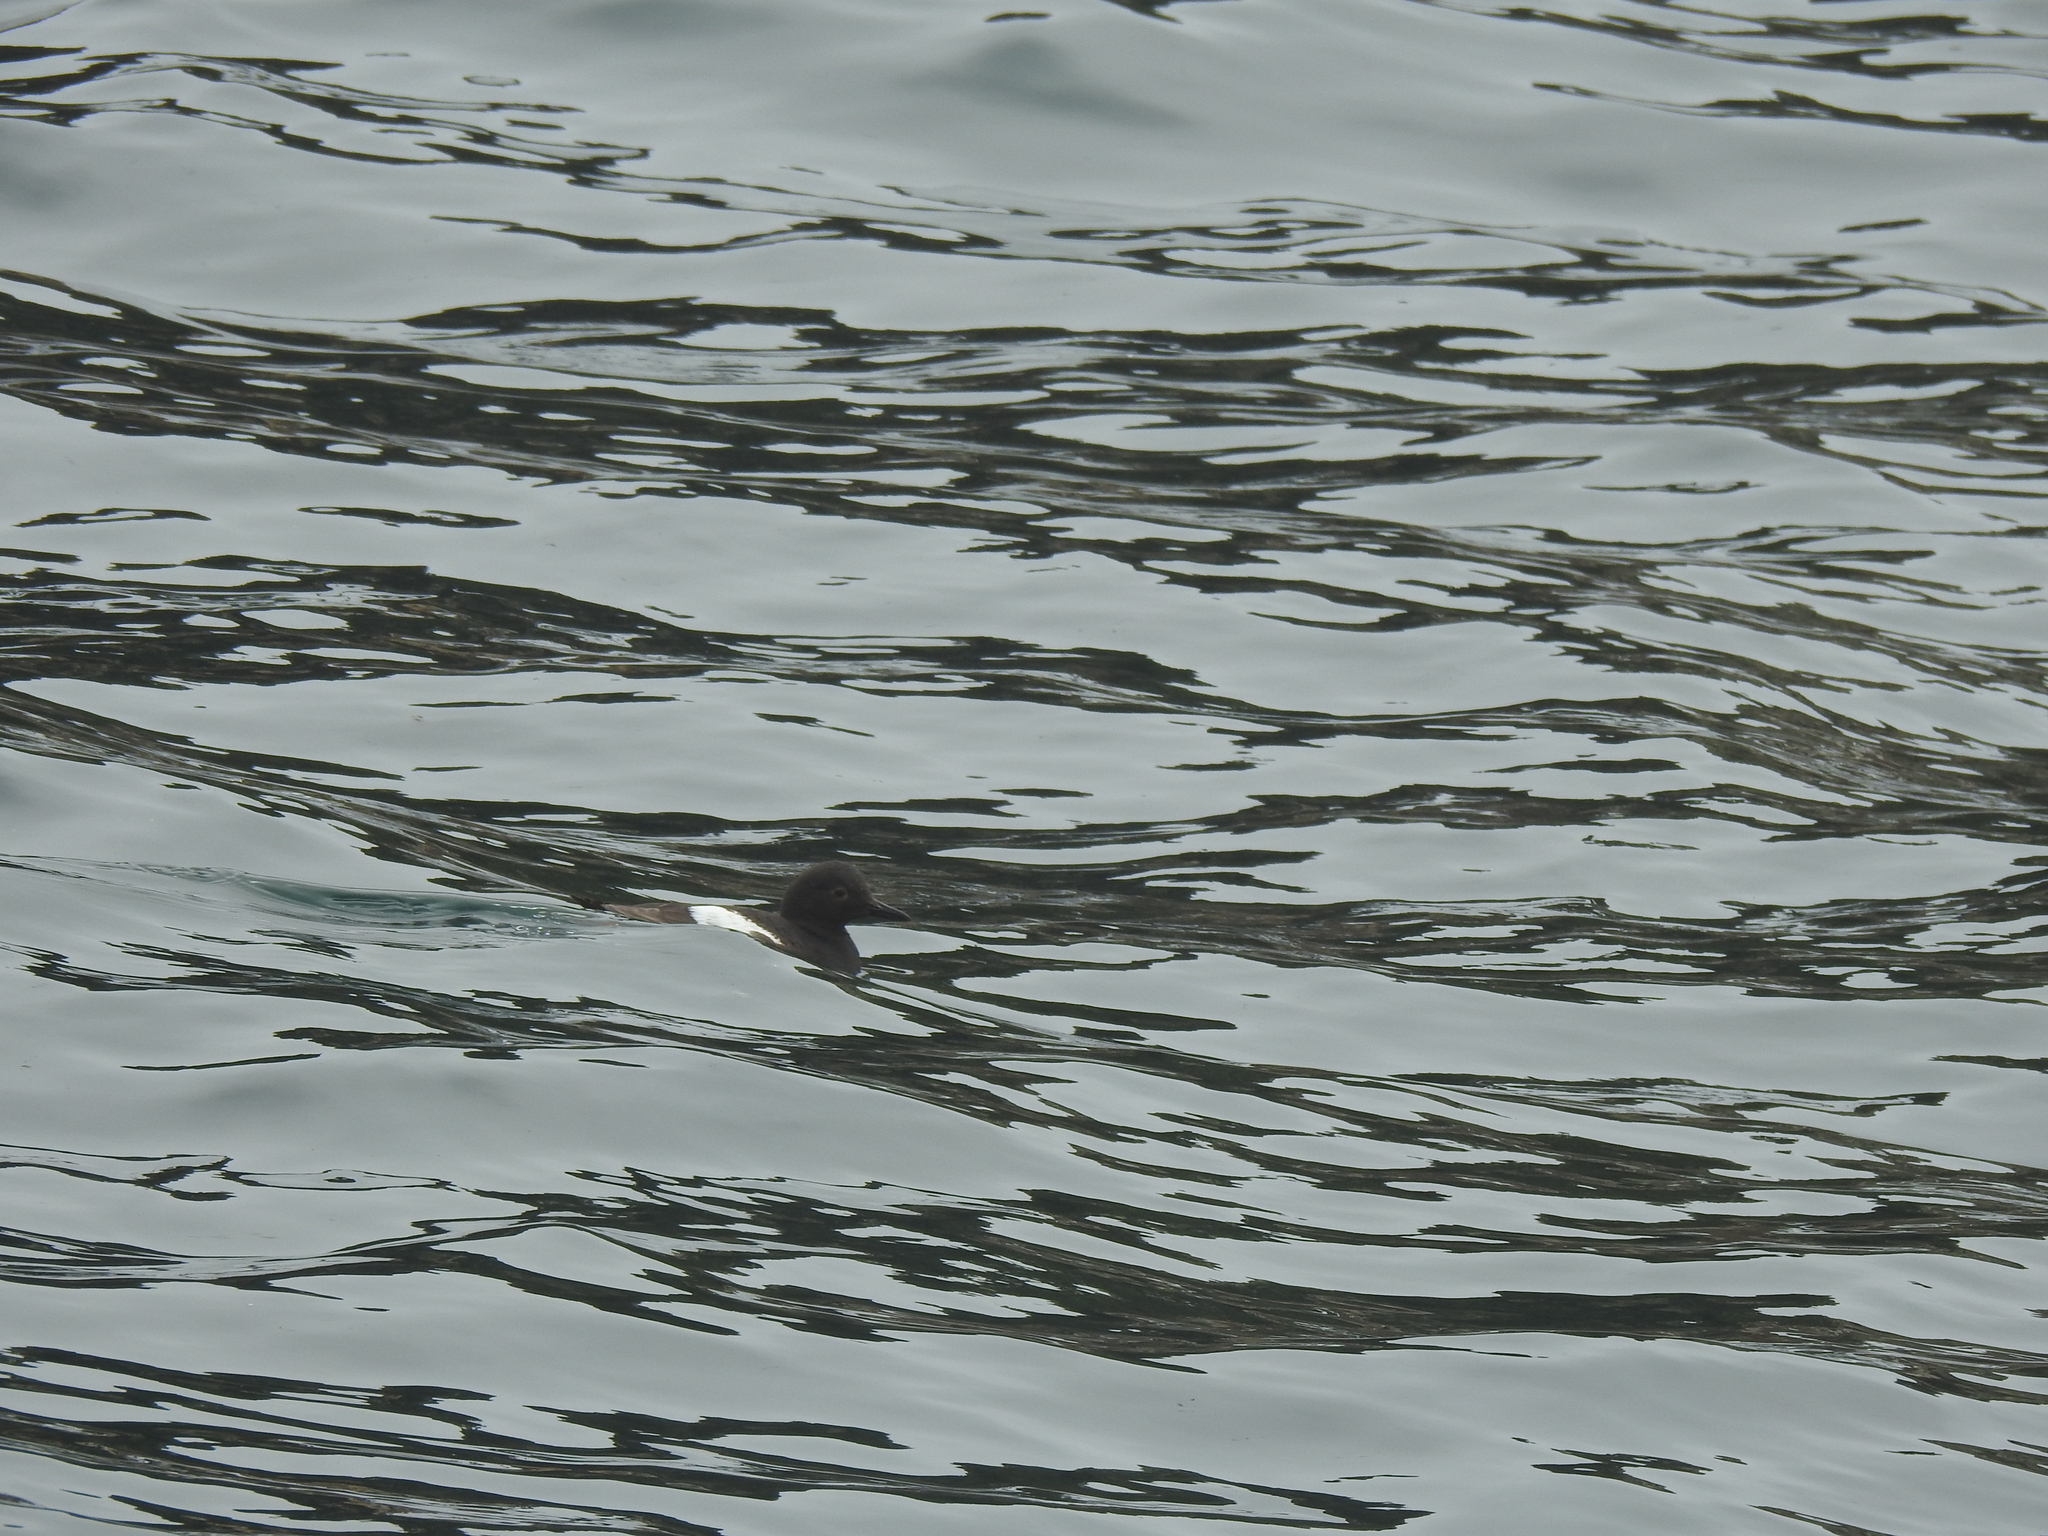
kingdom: Animalia
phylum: Chordata
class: Aves
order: Charadriiformes
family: Alcidae
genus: Cepphus
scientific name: Cepphus columba
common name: Pigeon guillemot
